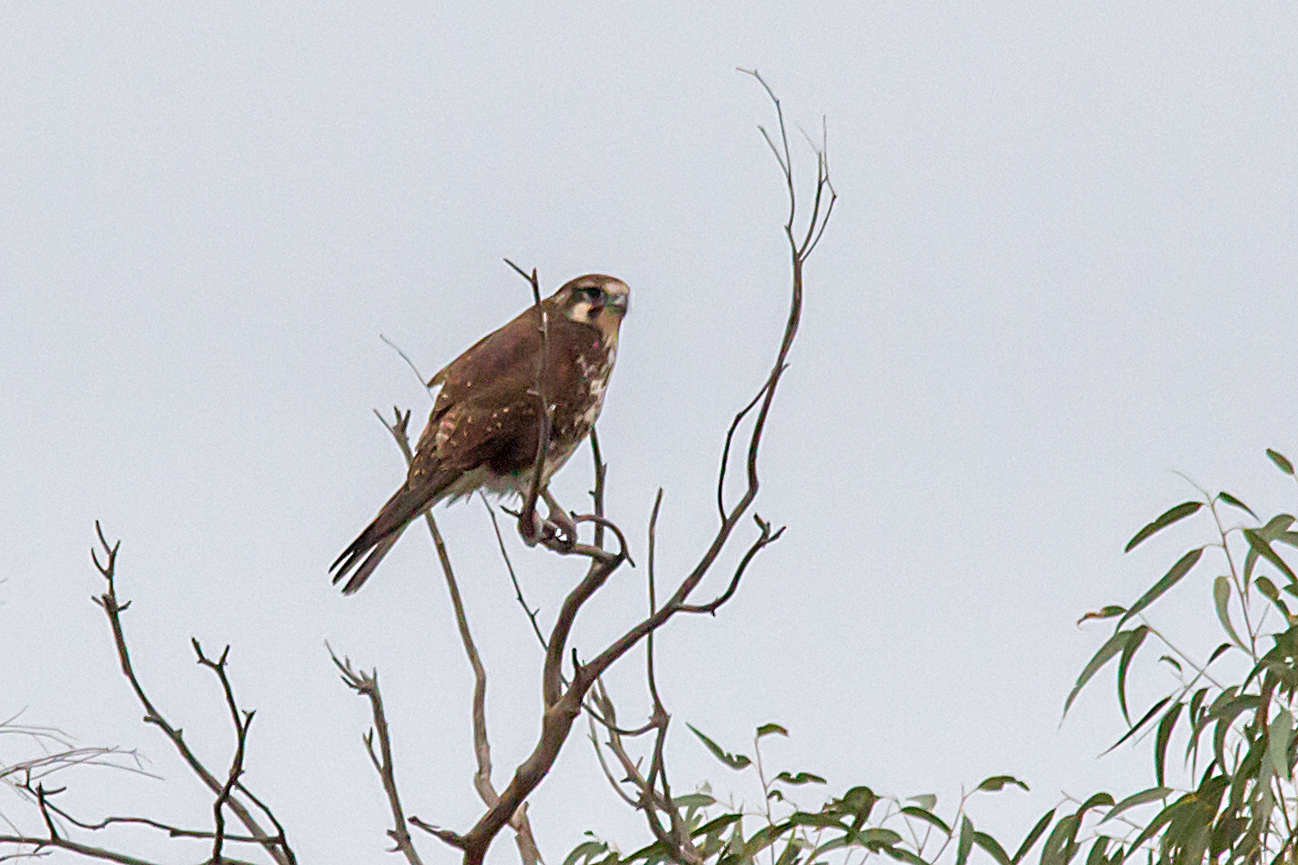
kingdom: Animalia
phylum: Chordata
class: Aves
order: Falconiformes
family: Falconidae
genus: Falco
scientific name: Falco berigora
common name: Brown falcon
